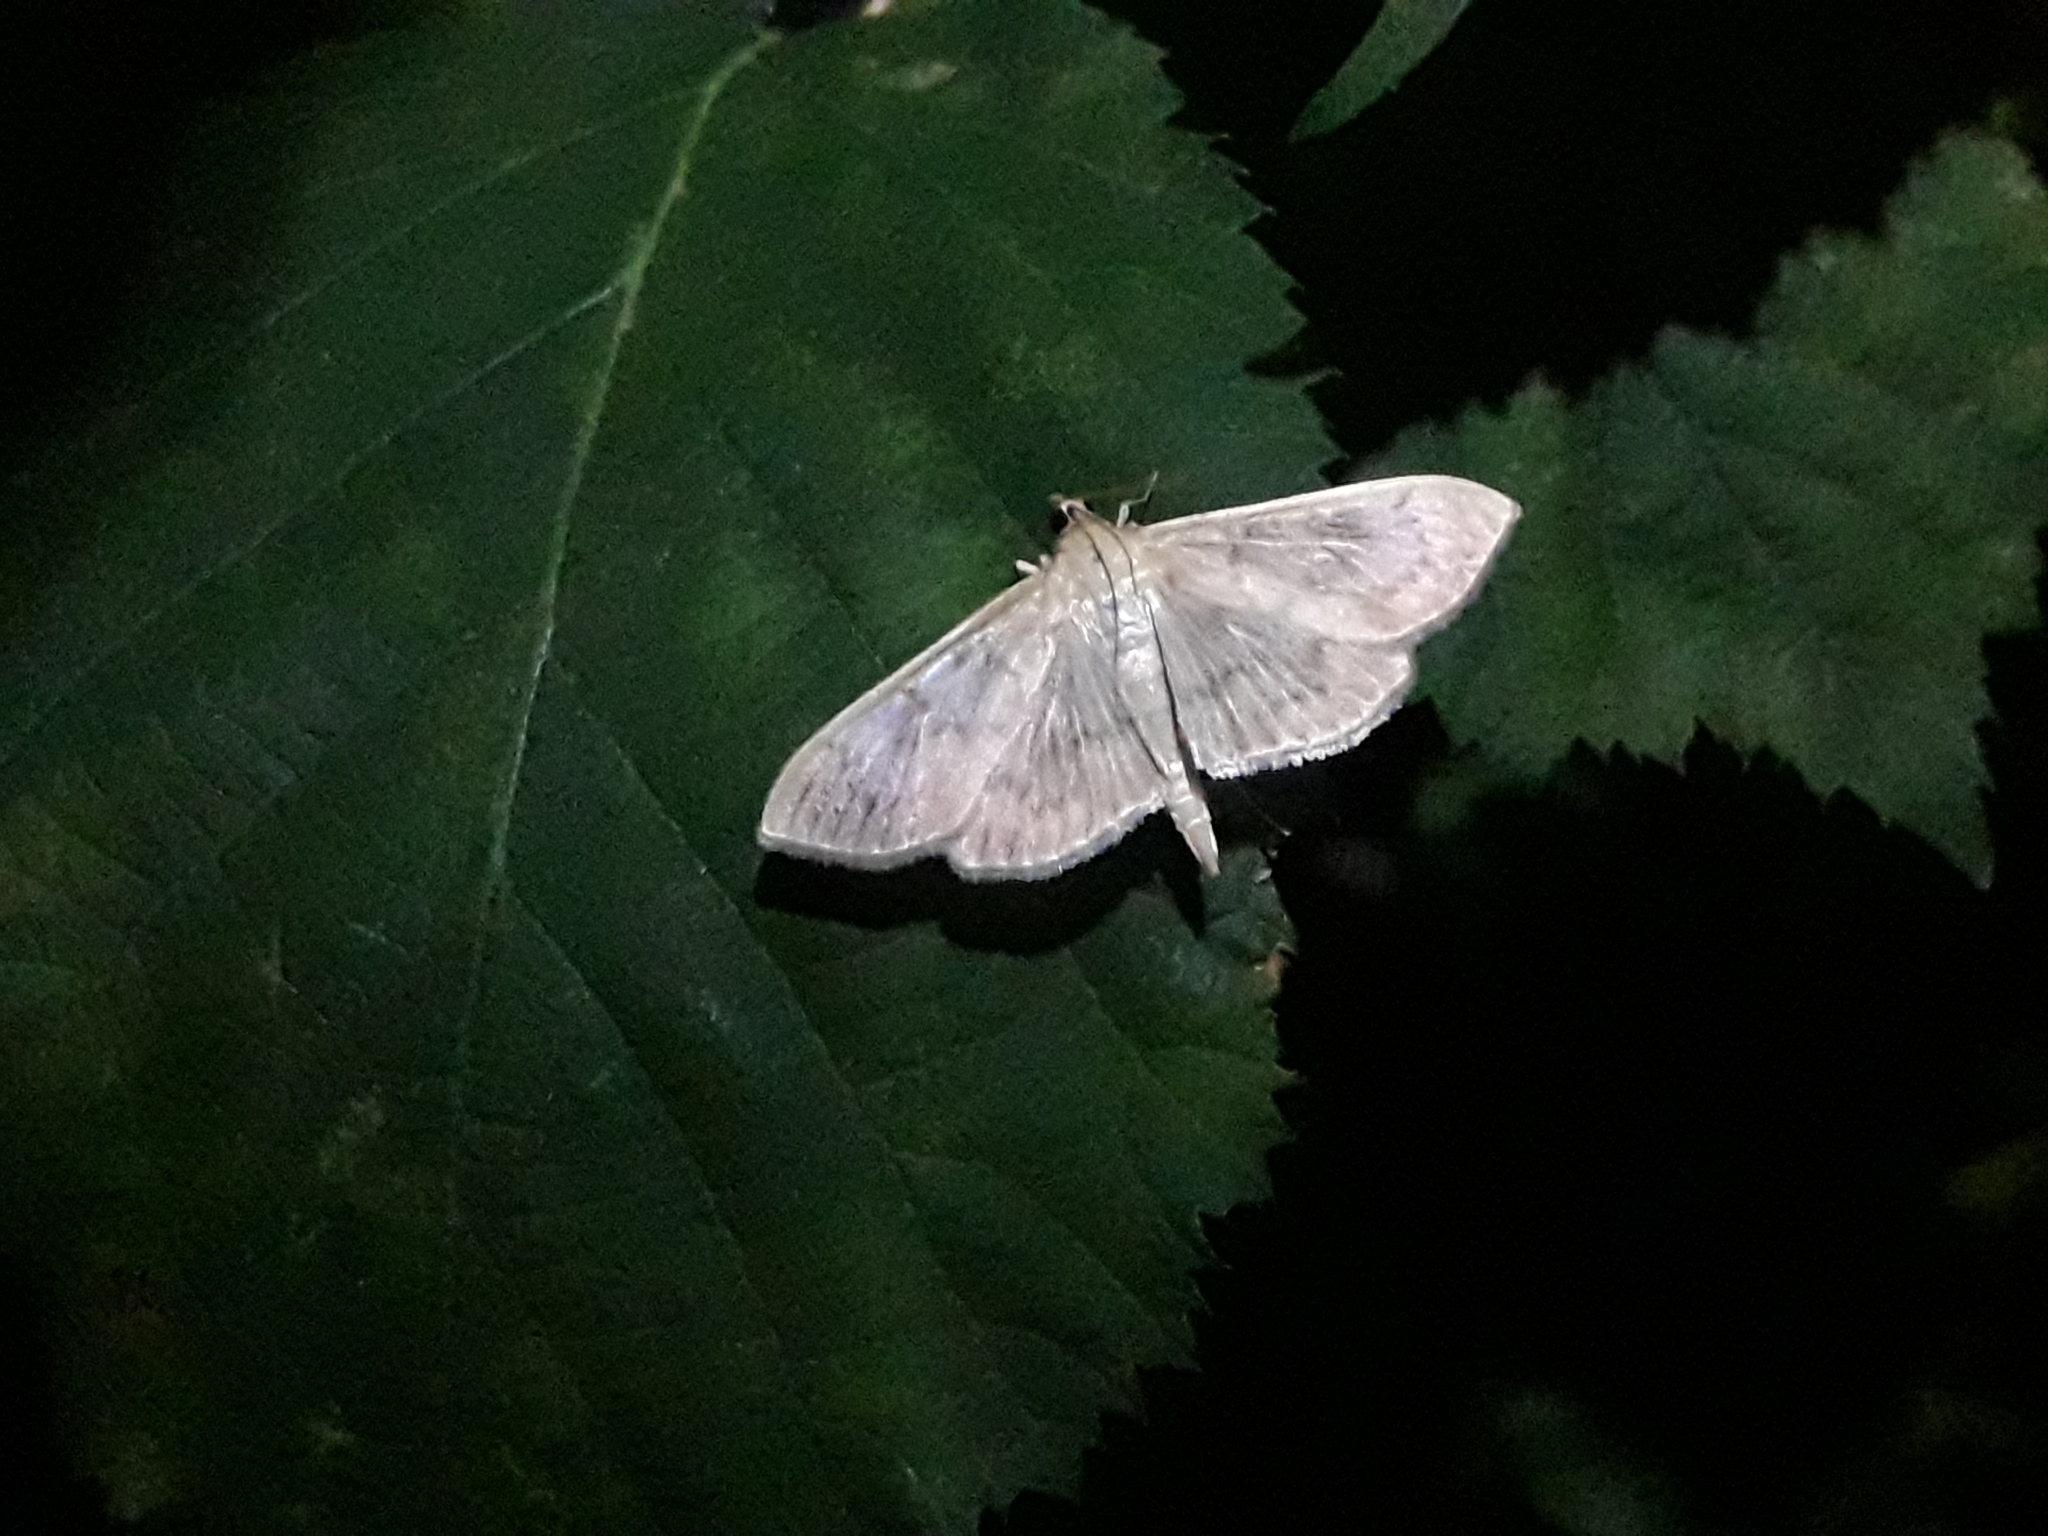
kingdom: Animalia
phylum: Arthropoda
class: Insecta
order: Lepidoptera
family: Crambidae
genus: Patania
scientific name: Patania ruralis
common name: Mother of pearl
